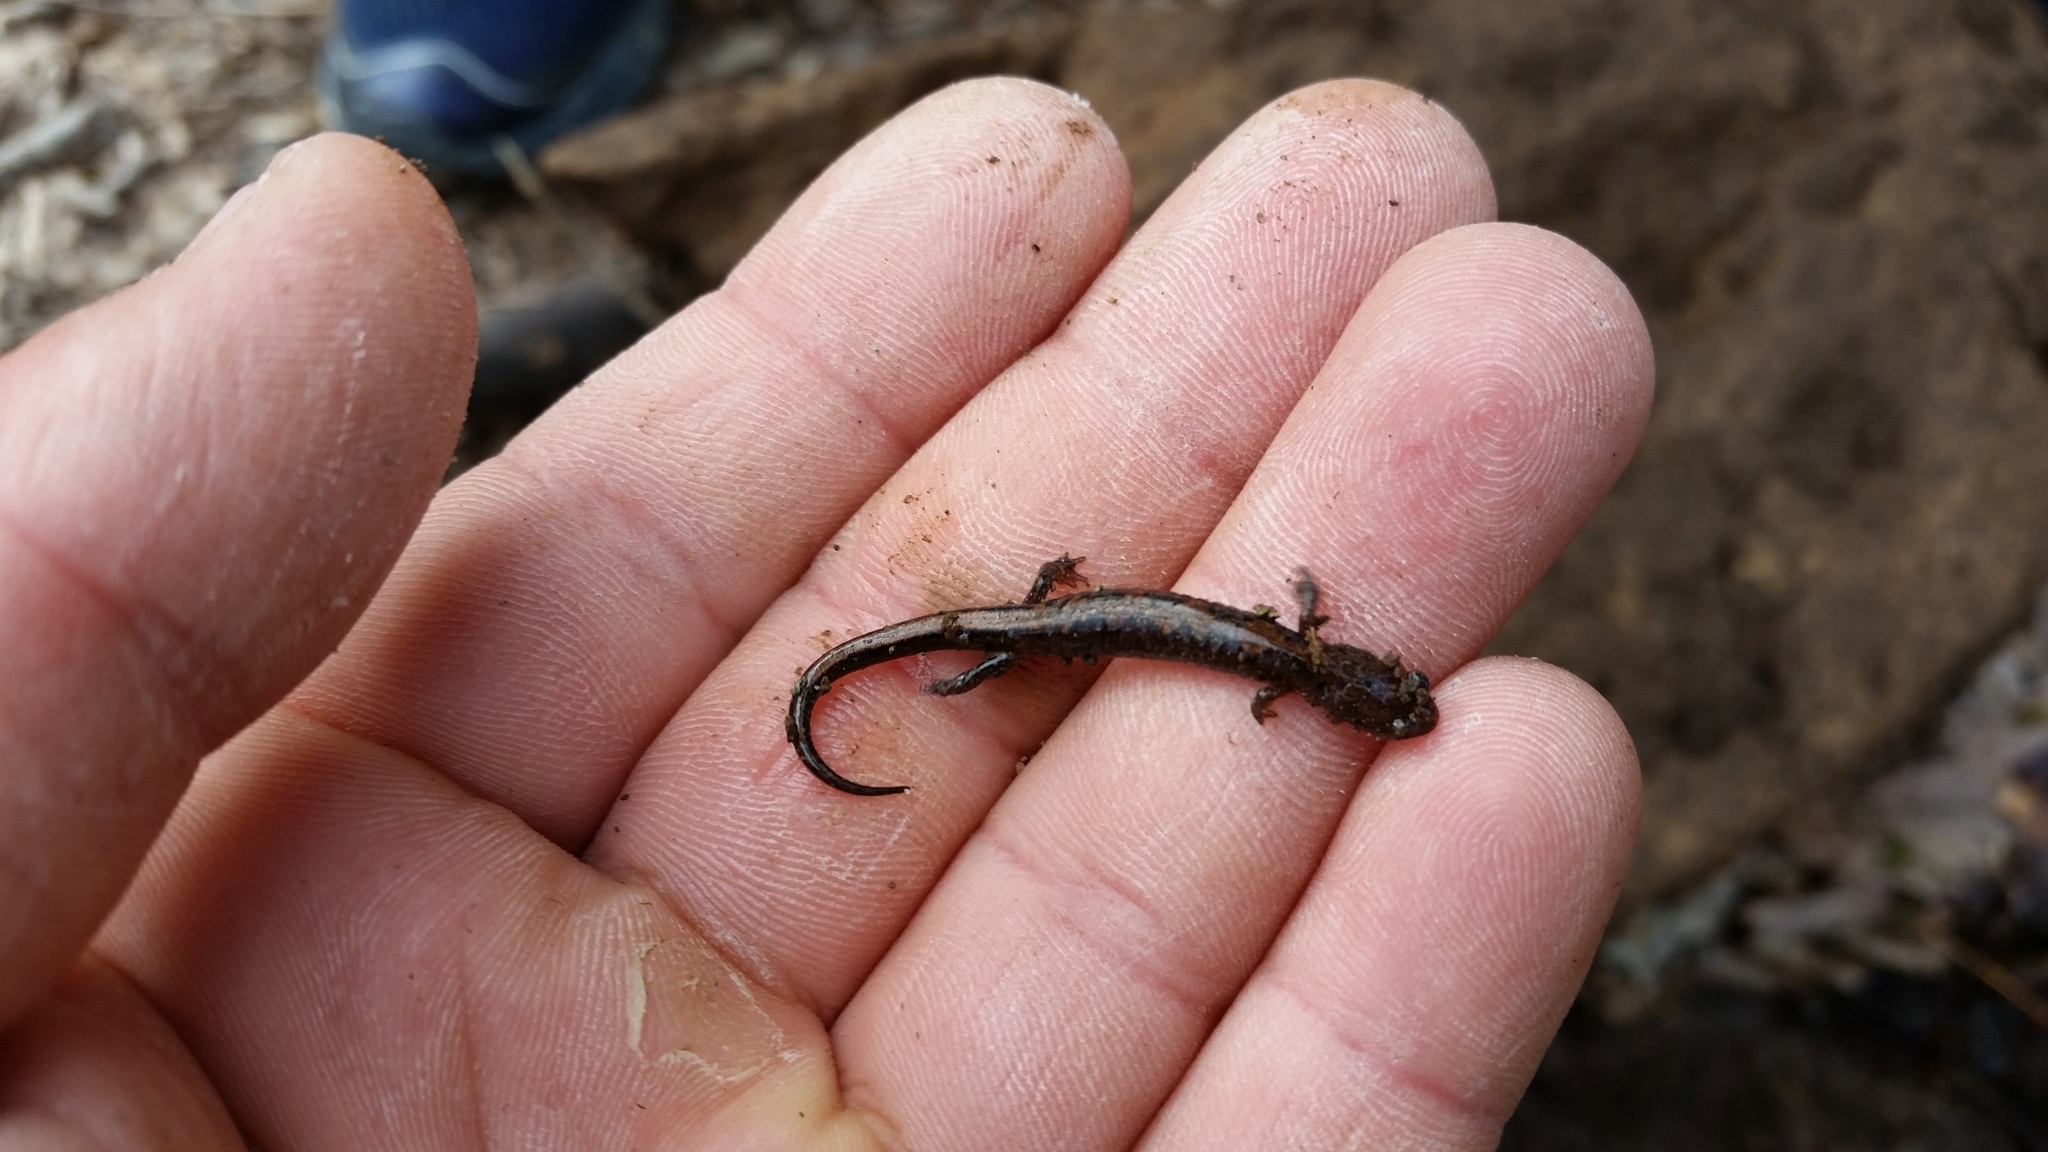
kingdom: Animalia
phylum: Chordata
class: Amphibia
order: Caudata
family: Plethodontidae
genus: Plethodon
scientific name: Plethodon dorsalis
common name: Northern zigzag salamander
